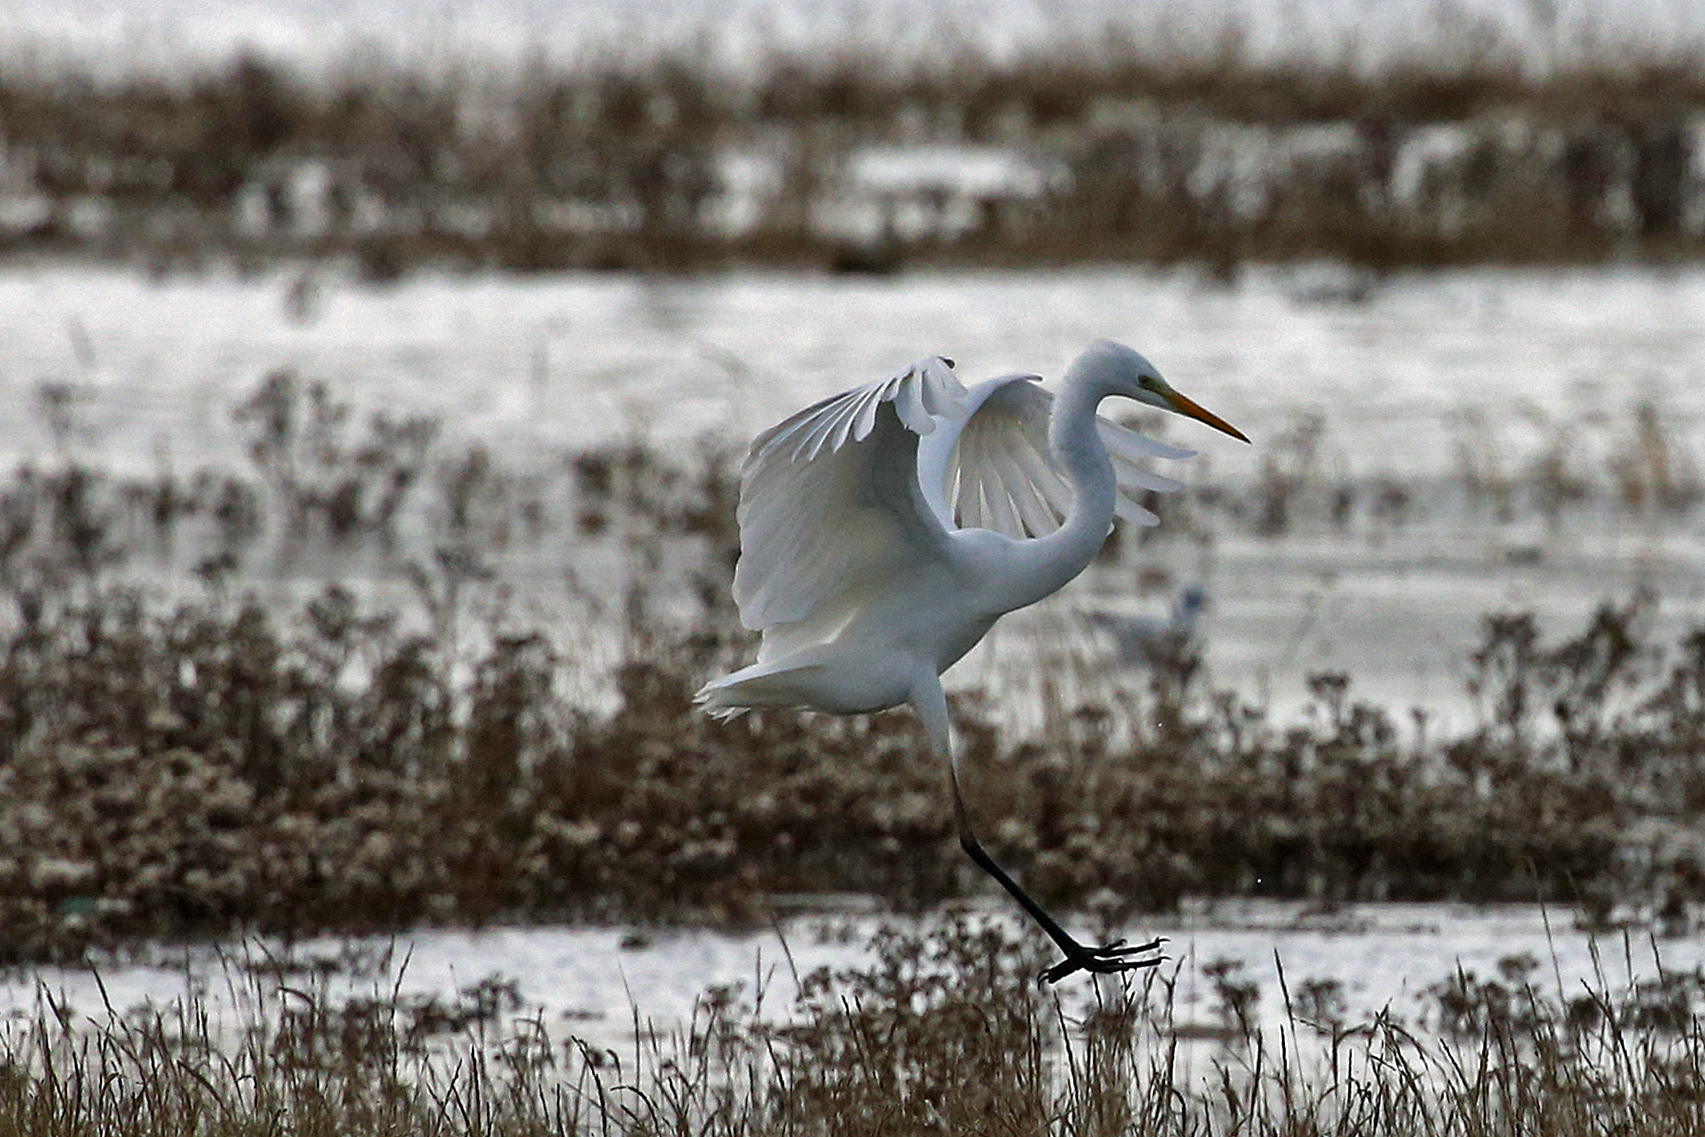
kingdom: Animalia
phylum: Chordata
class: Aves
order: Pelecaniformes
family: Ardeidae
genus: Ardea
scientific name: Ardea alba
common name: Great egret
